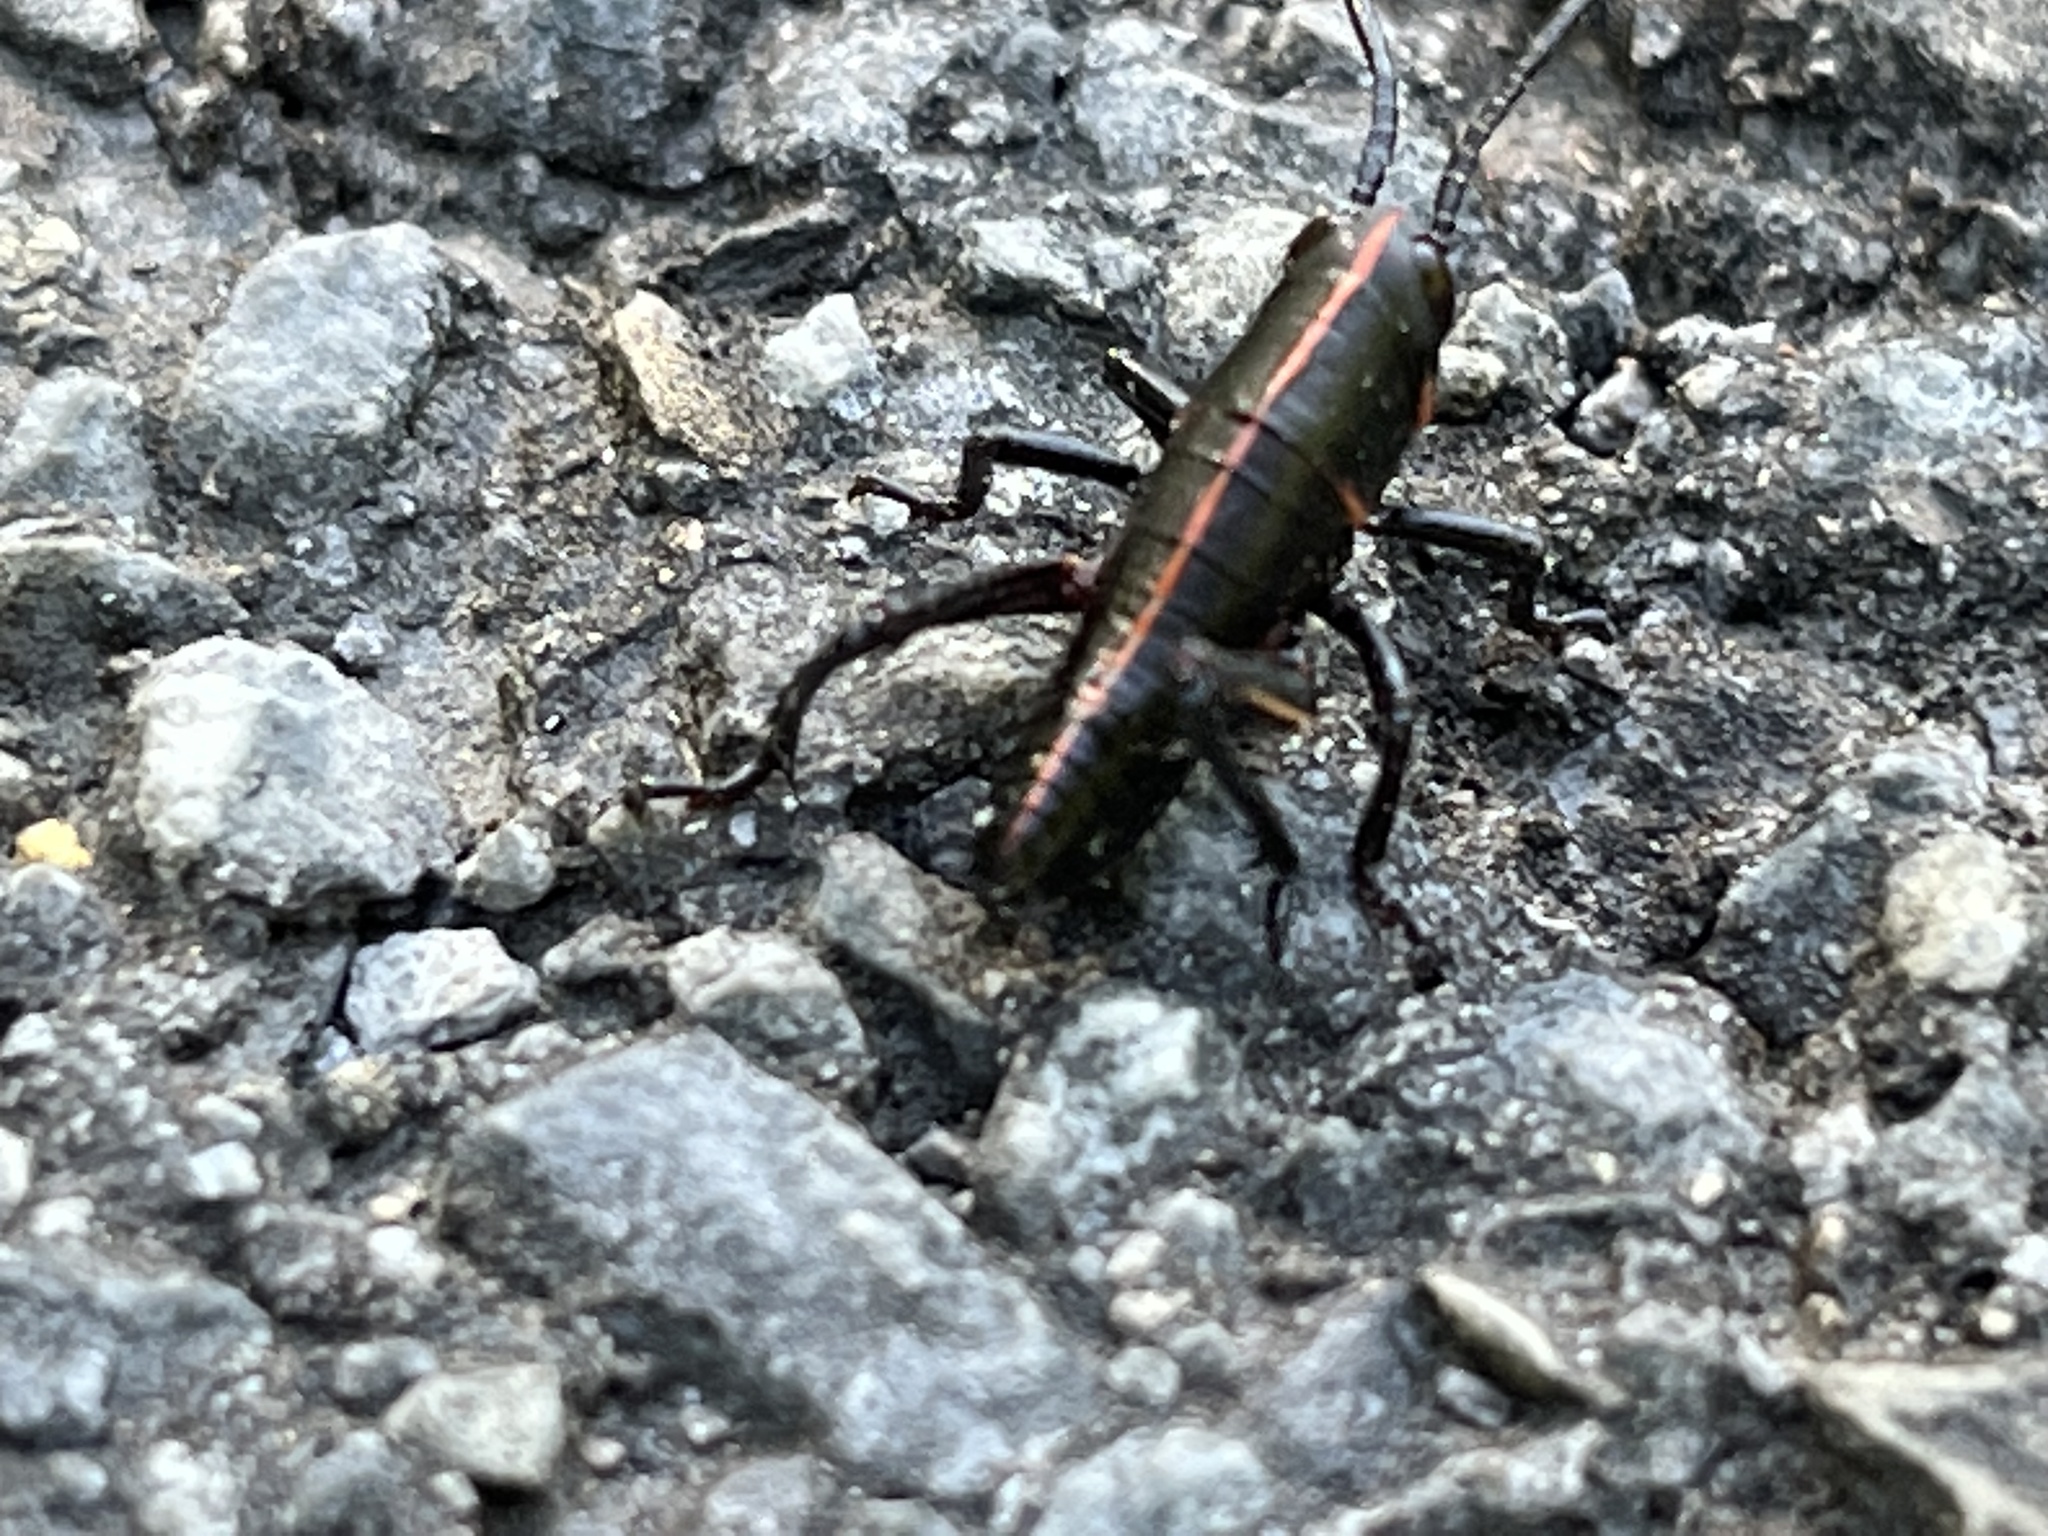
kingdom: Animalia
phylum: Arthropoda
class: Insecta
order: Orthoptera
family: Romaleidae
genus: Romalea
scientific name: Romalea microptera
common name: Eastern lubber grasshopper
